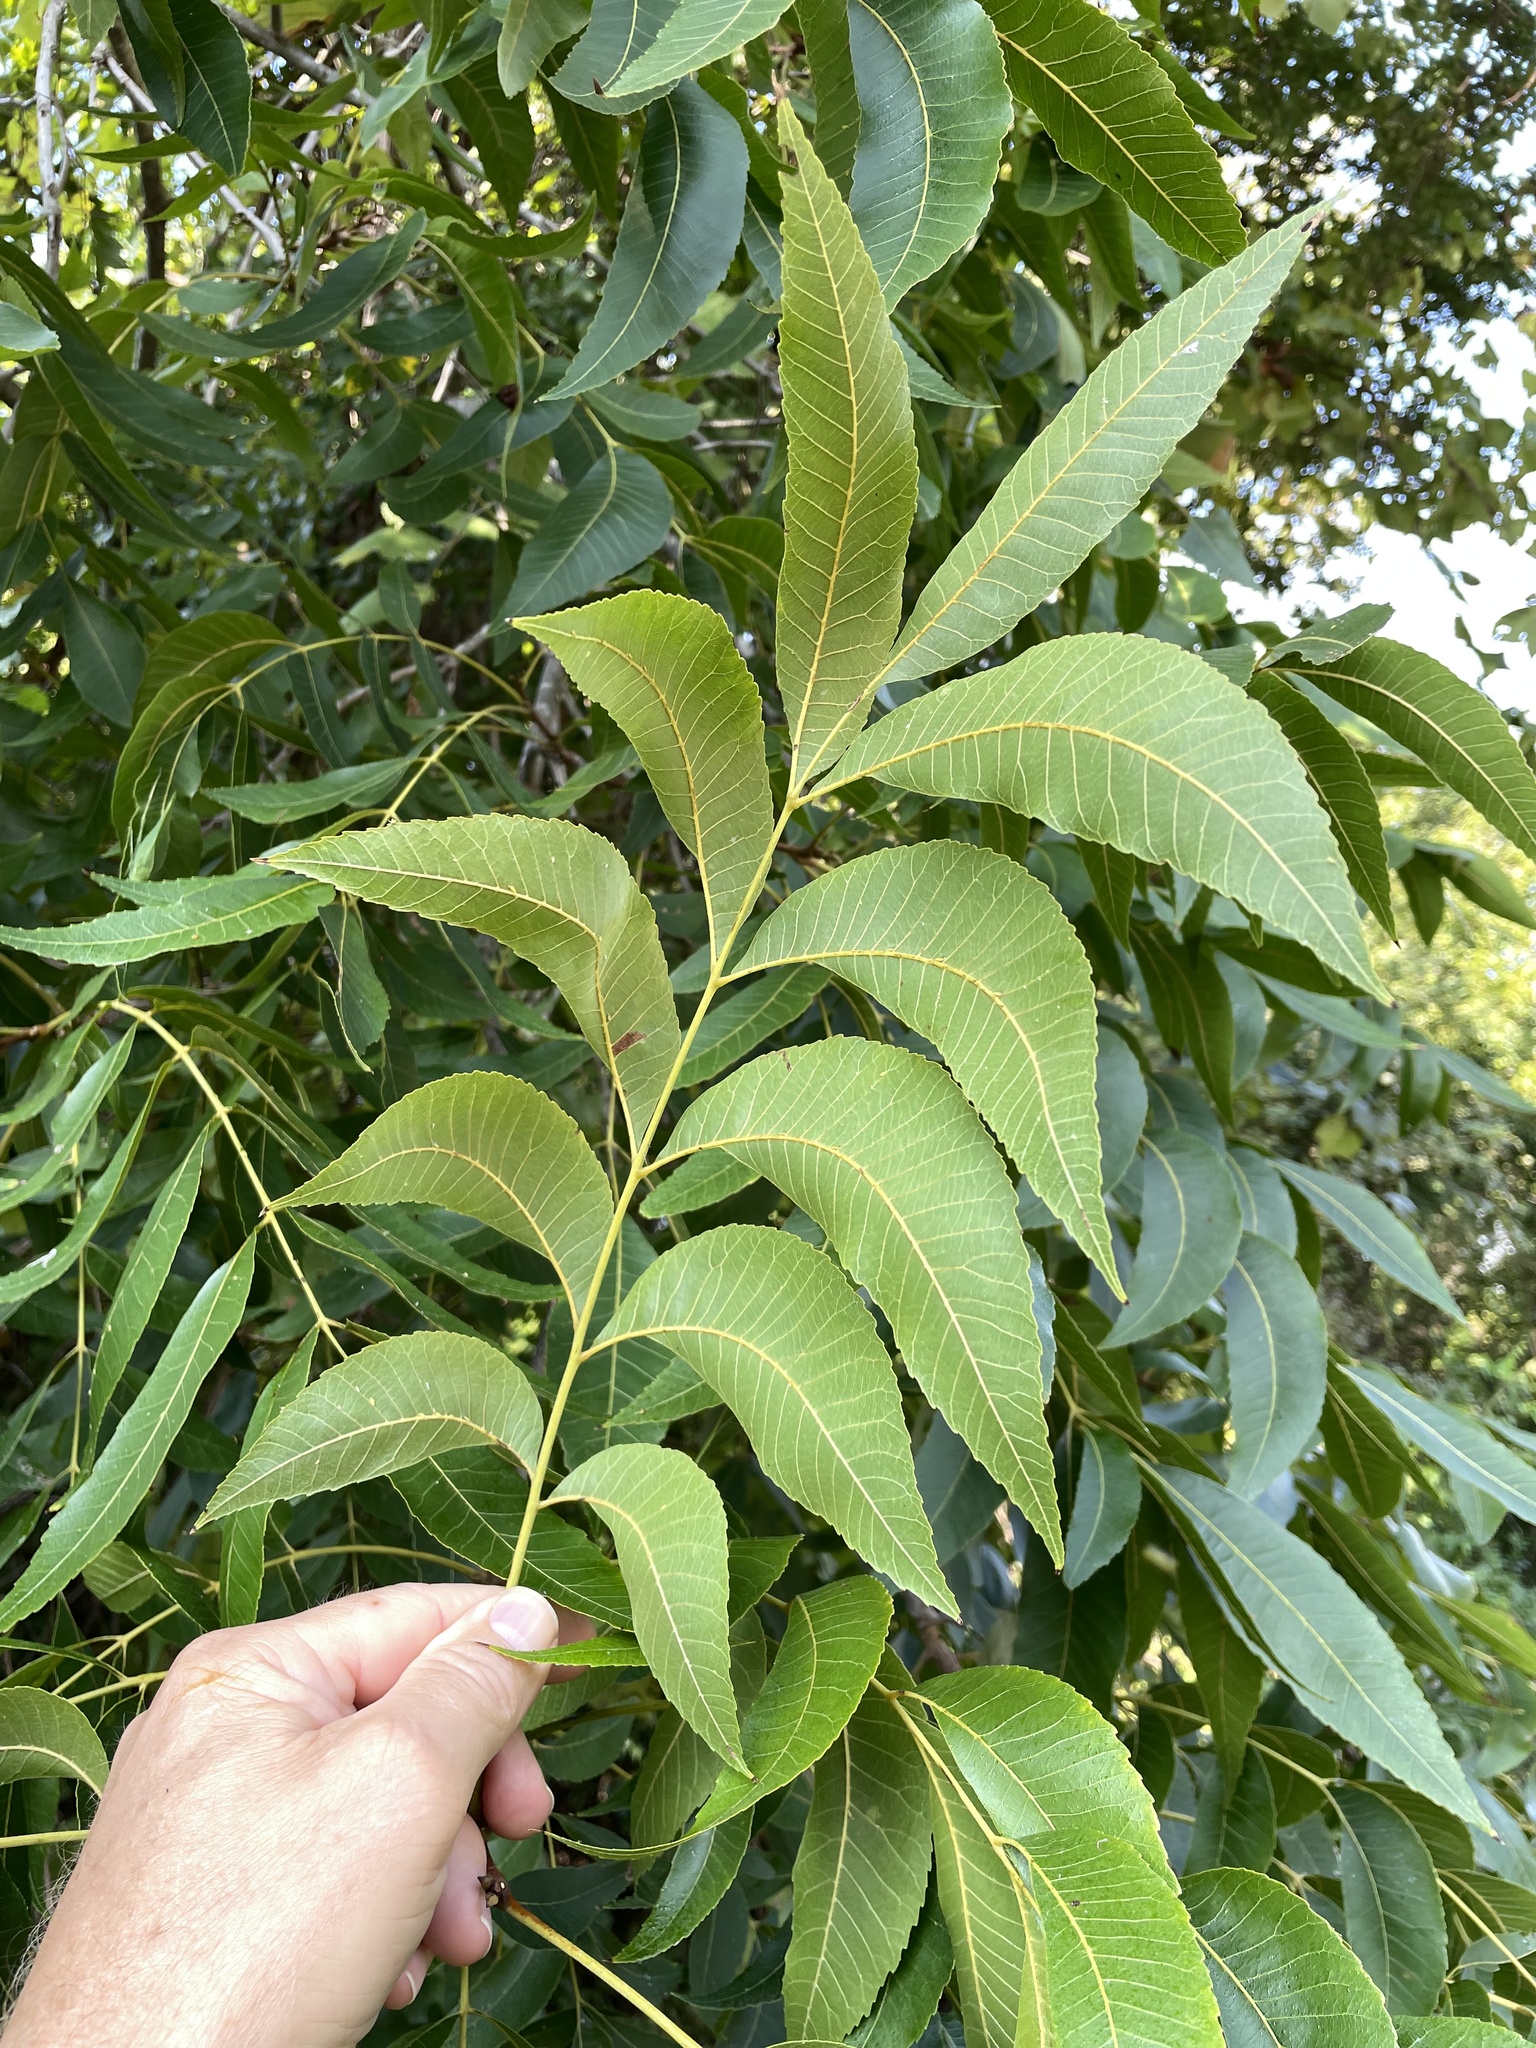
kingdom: Plantae
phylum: Tracheophyta
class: Magnoliopsida
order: Fagales
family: Juglandaceae
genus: Carya
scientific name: Carya illinoinensis
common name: Pecan
